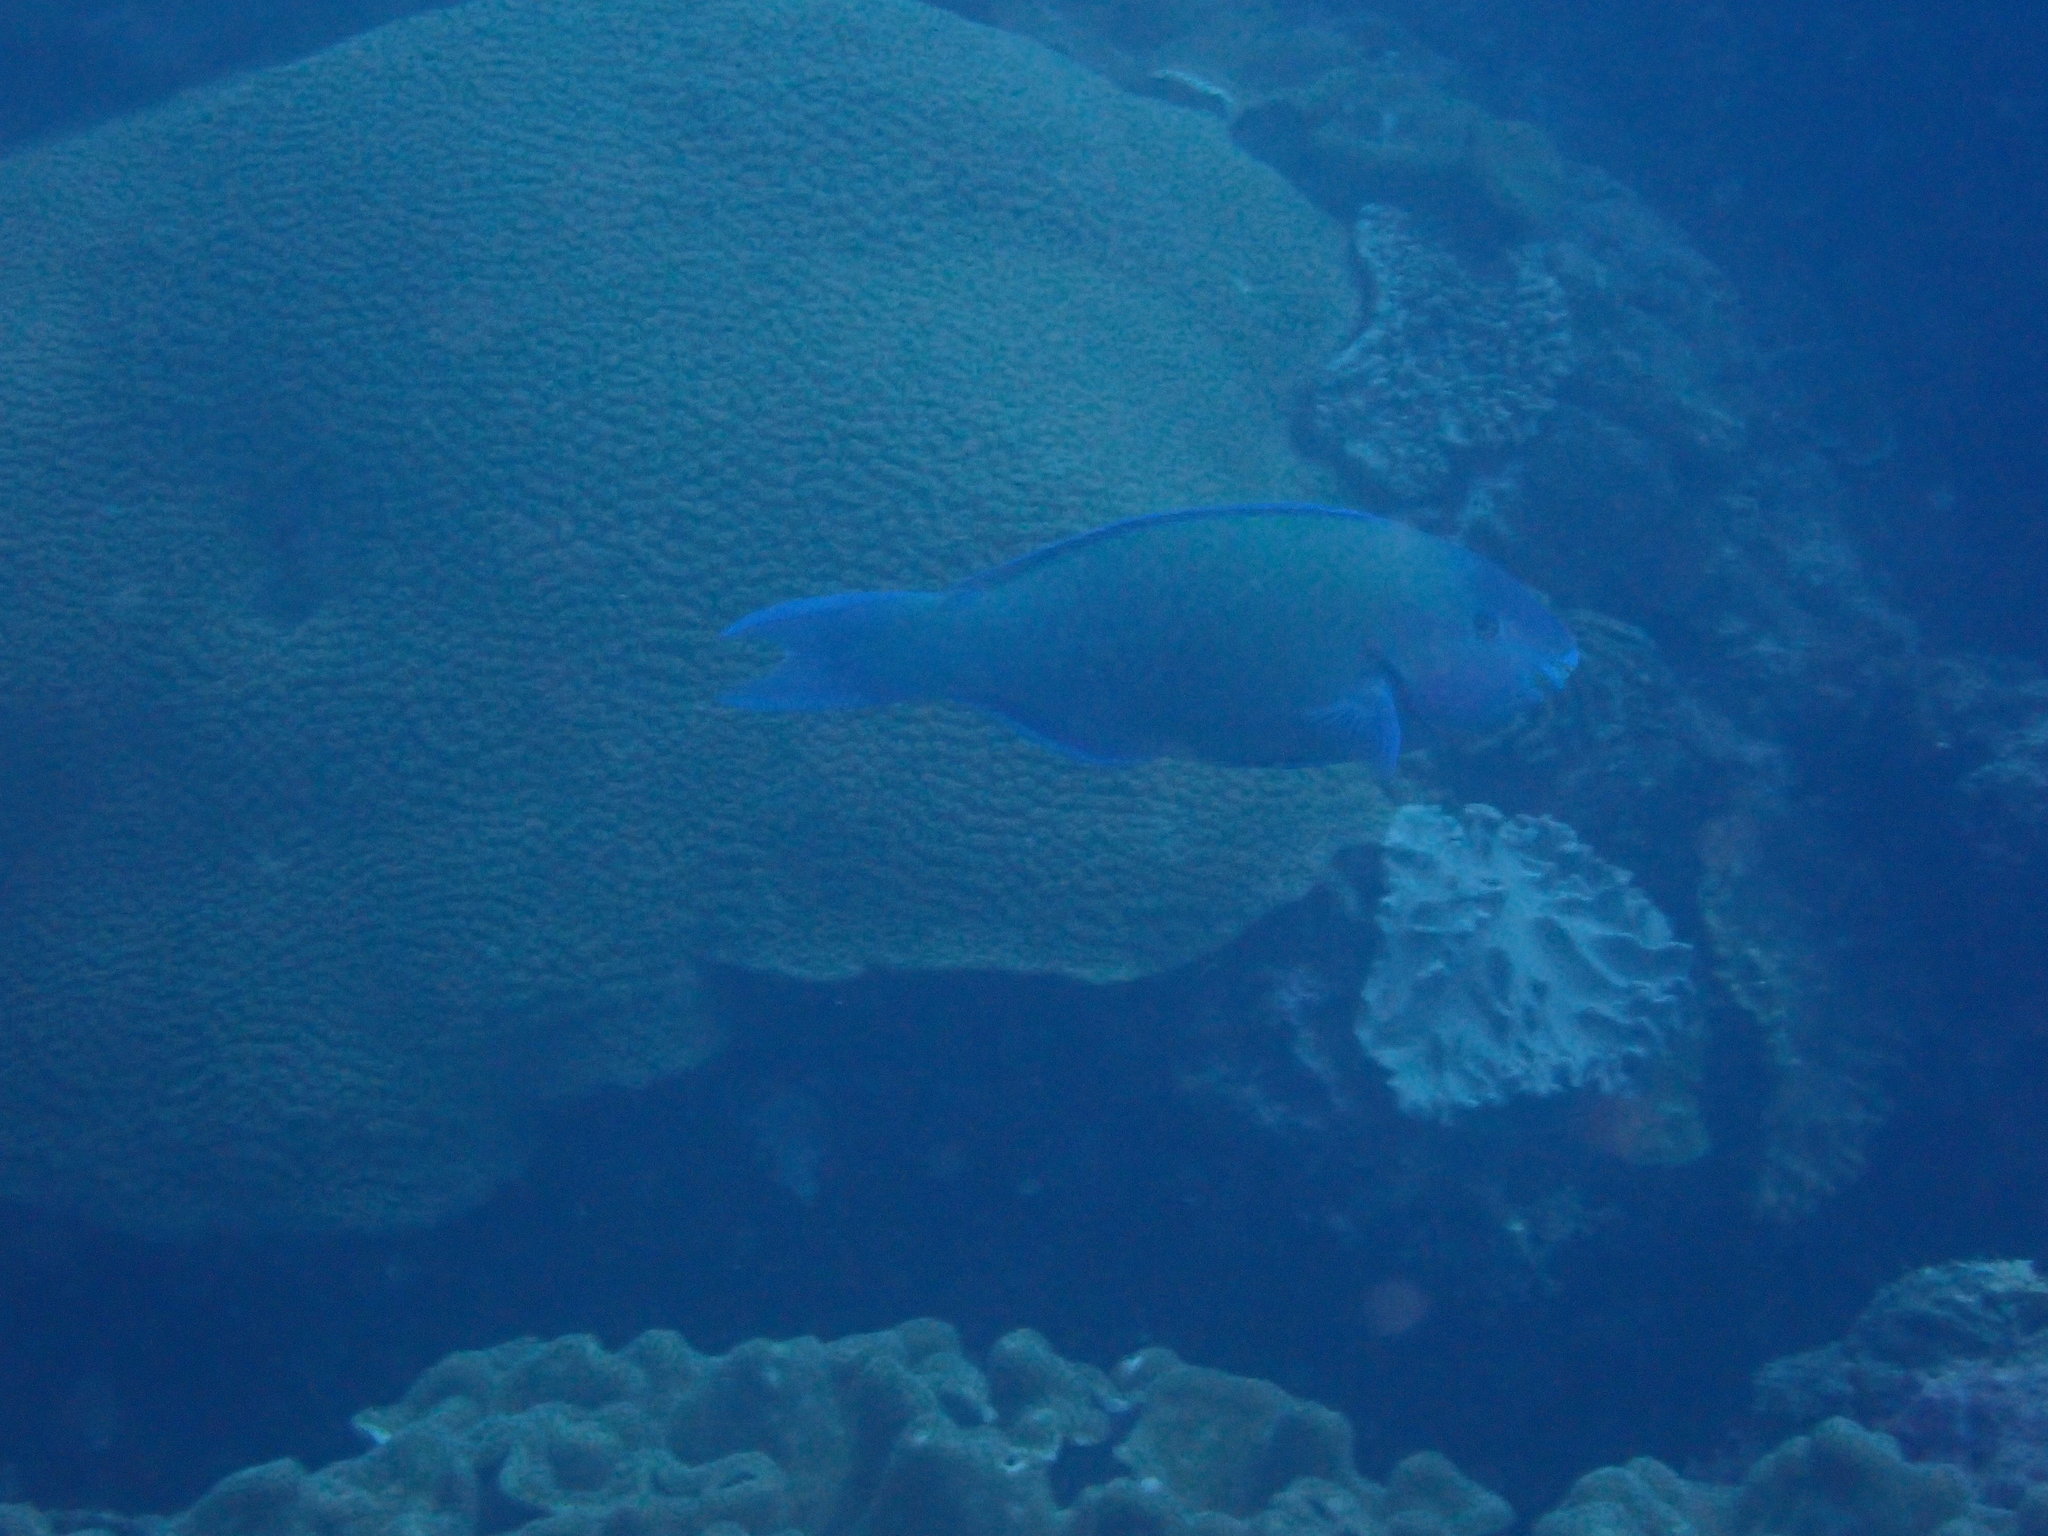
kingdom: Animalia
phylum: Chordata
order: Perciformes
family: Scaridae
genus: Scarus
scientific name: Scarus psittacus
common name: Palenose parrotfish
